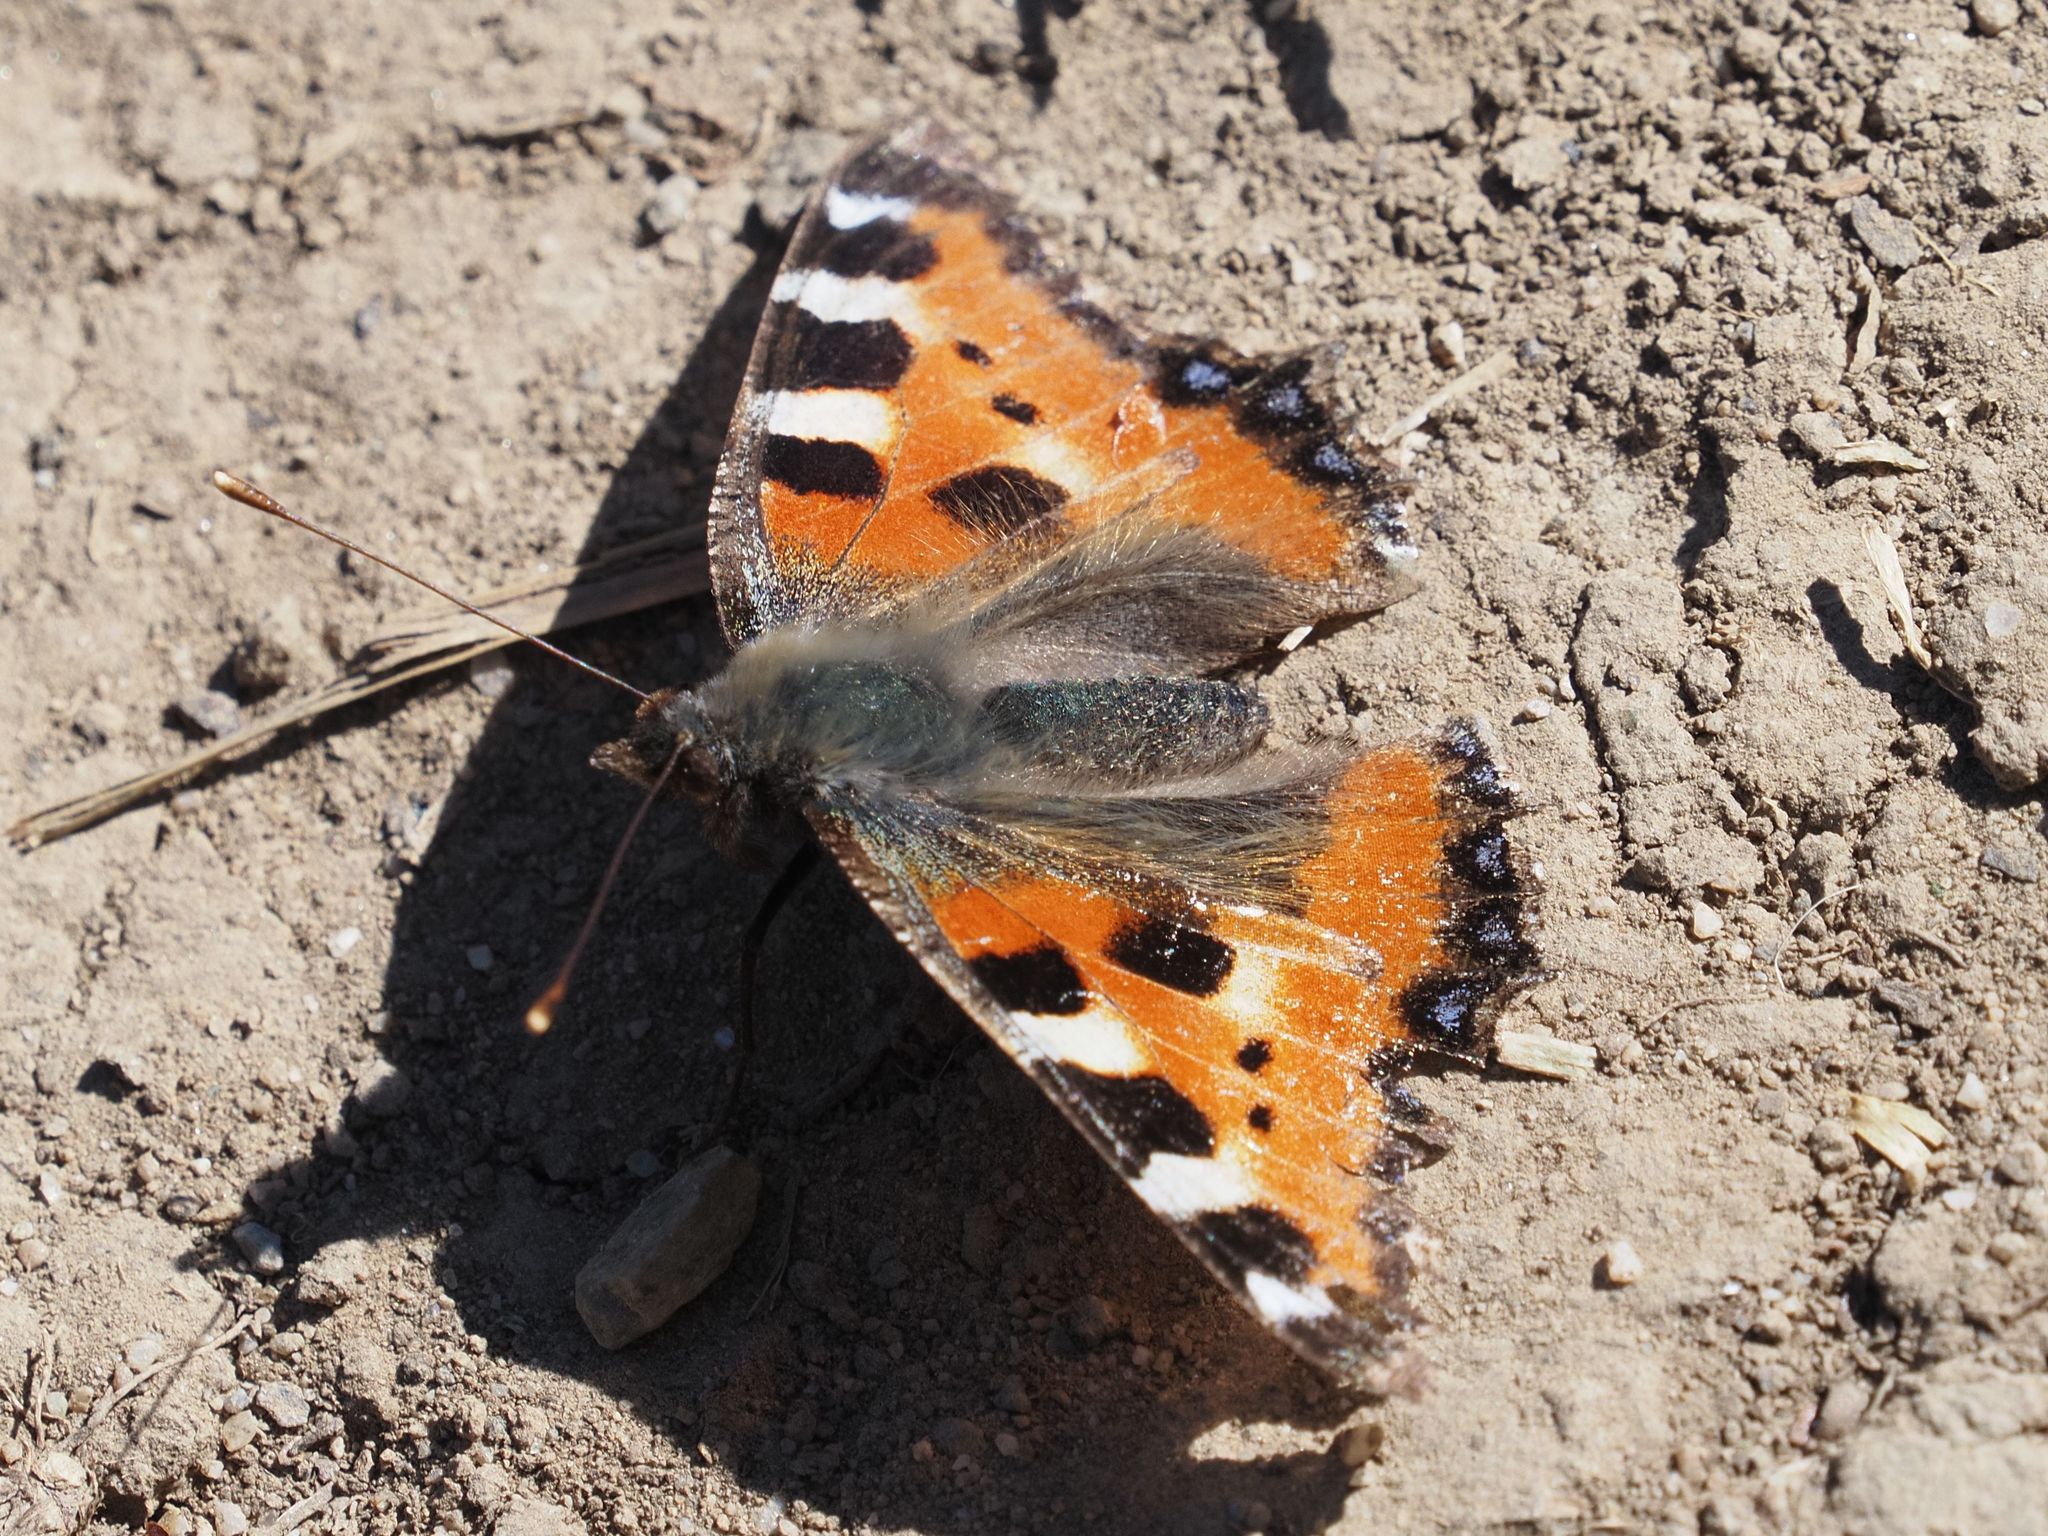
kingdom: Animalia
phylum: Arthropoda
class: Insecta
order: Lepidoptera
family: Nymphalidae
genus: Aglais
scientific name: Aglais urticae
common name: Small tortoiseshell
